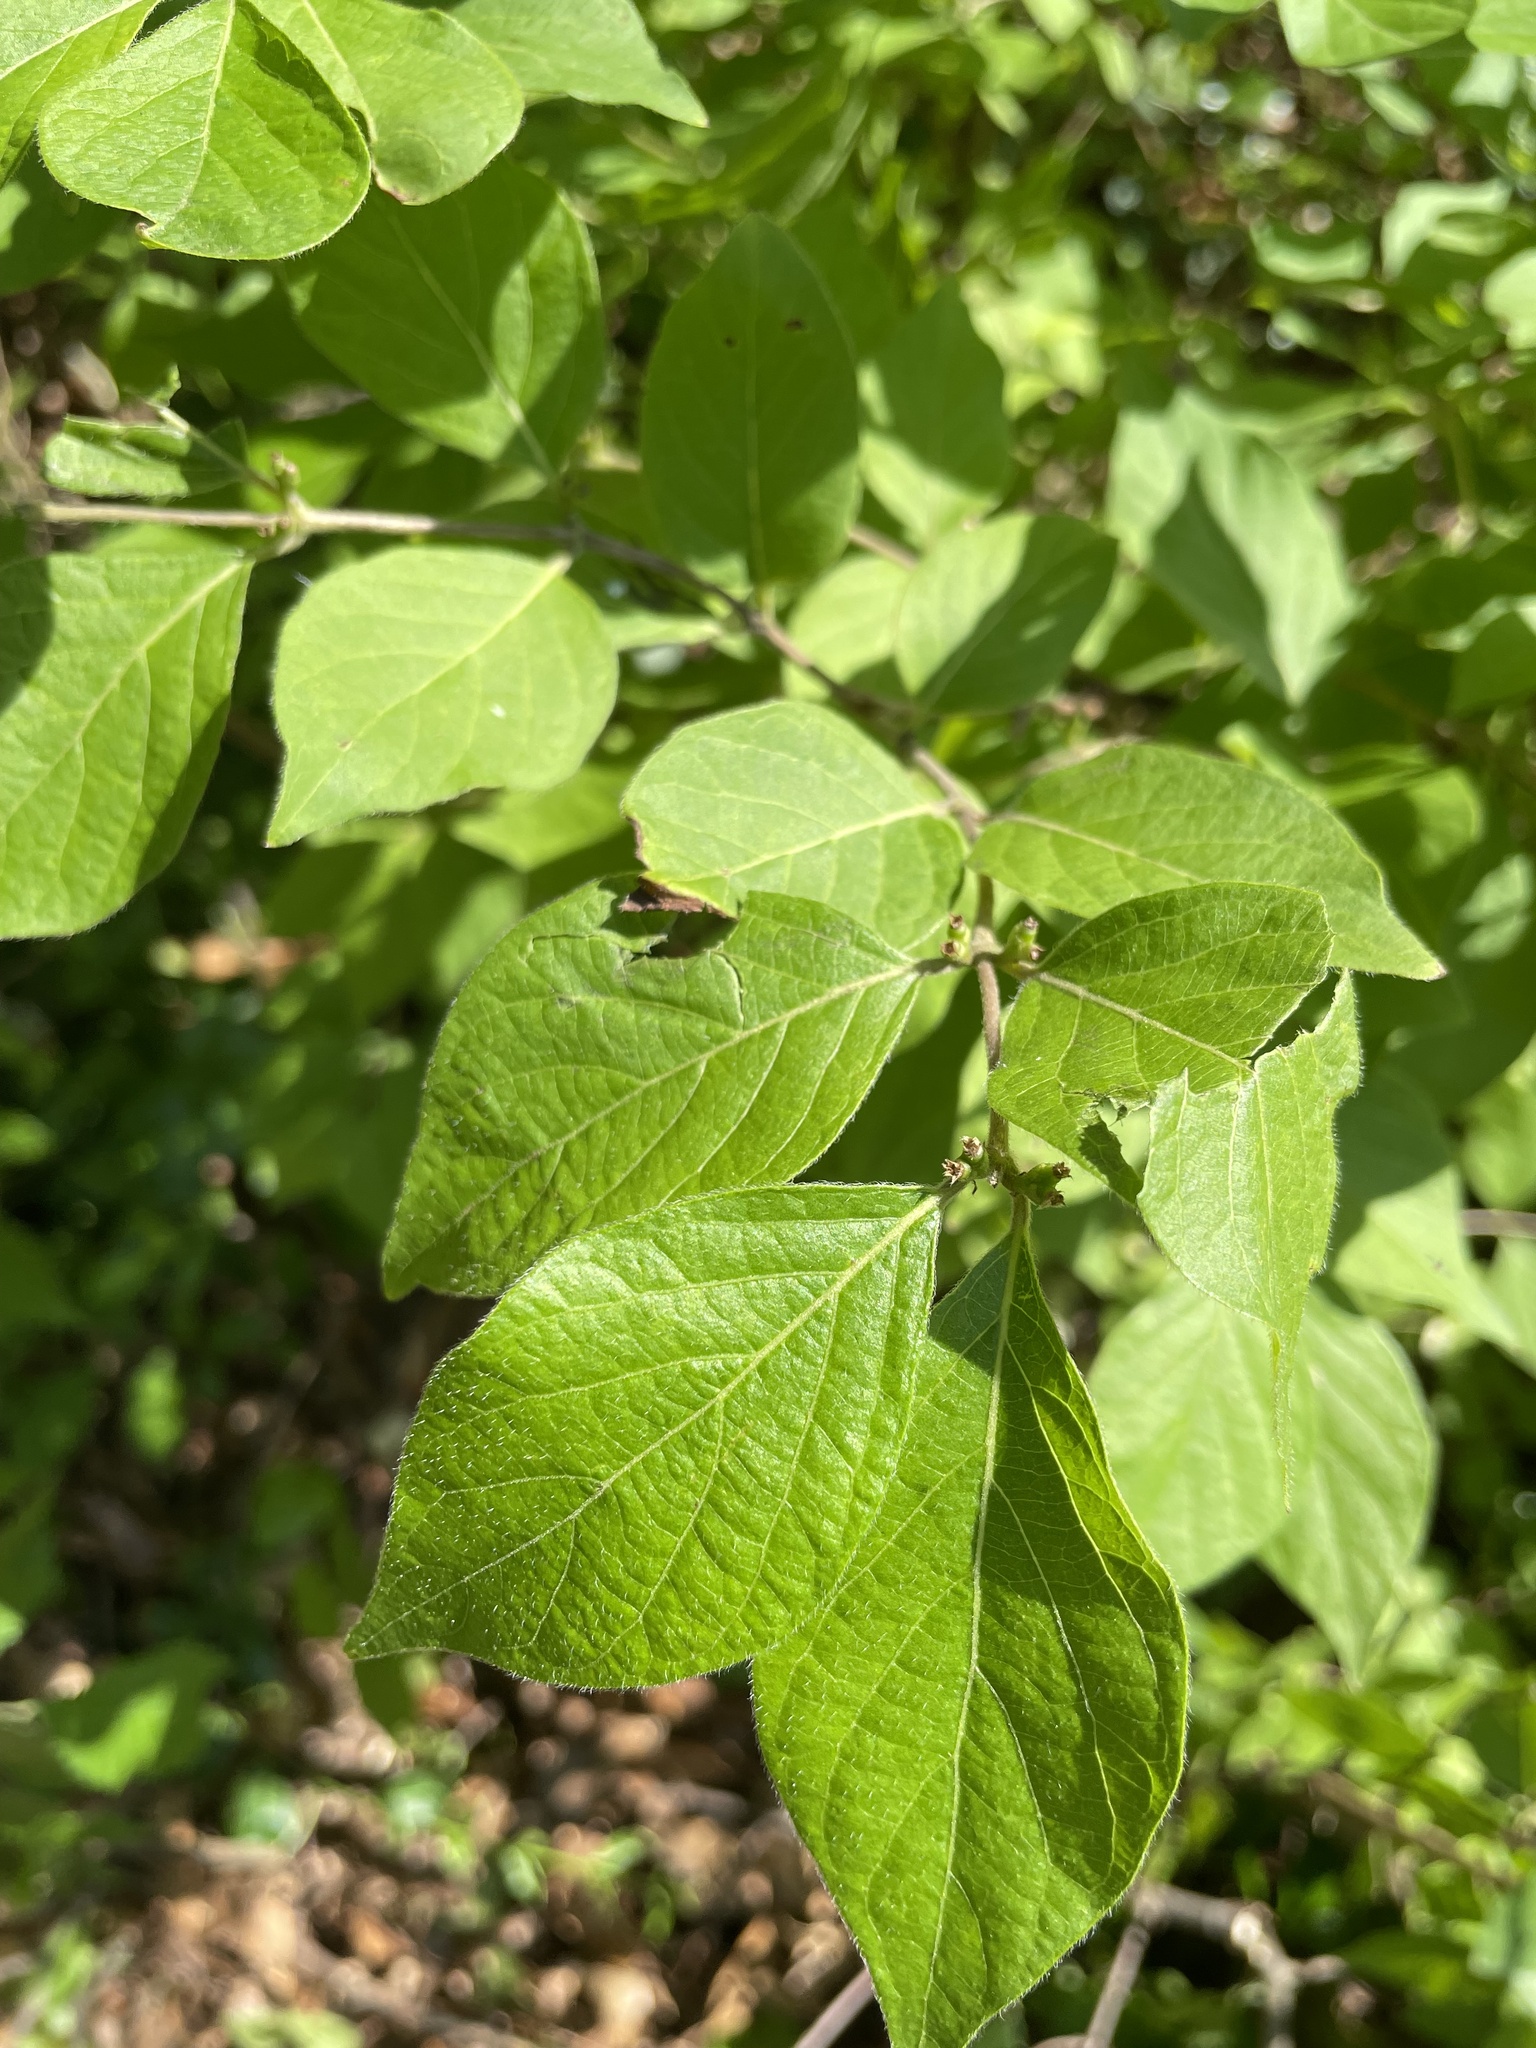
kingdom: Plantae
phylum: Tracheophyta
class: Magnoliopsida
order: Dipsacales
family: Caprifoliaceae
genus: Lonicera
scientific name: Lonicera maackii
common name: Amur honeysuckle
